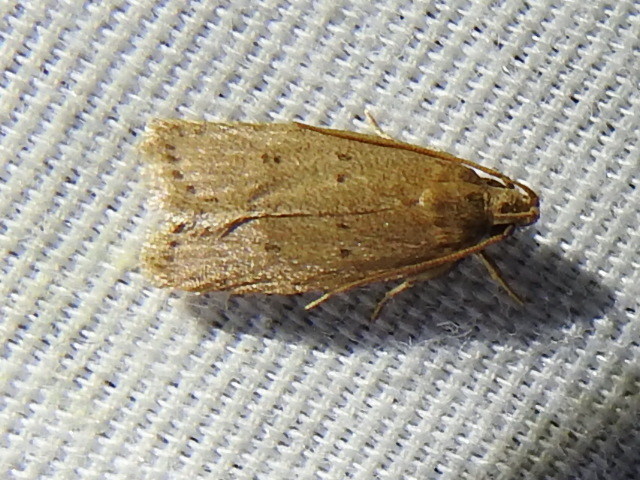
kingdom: Animalia
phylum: Arthropoda
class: Insecta
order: Lepidoptera
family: Autostichidae
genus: Autosticha
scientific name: Autosticha kyotensis
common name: Kyoto moth
